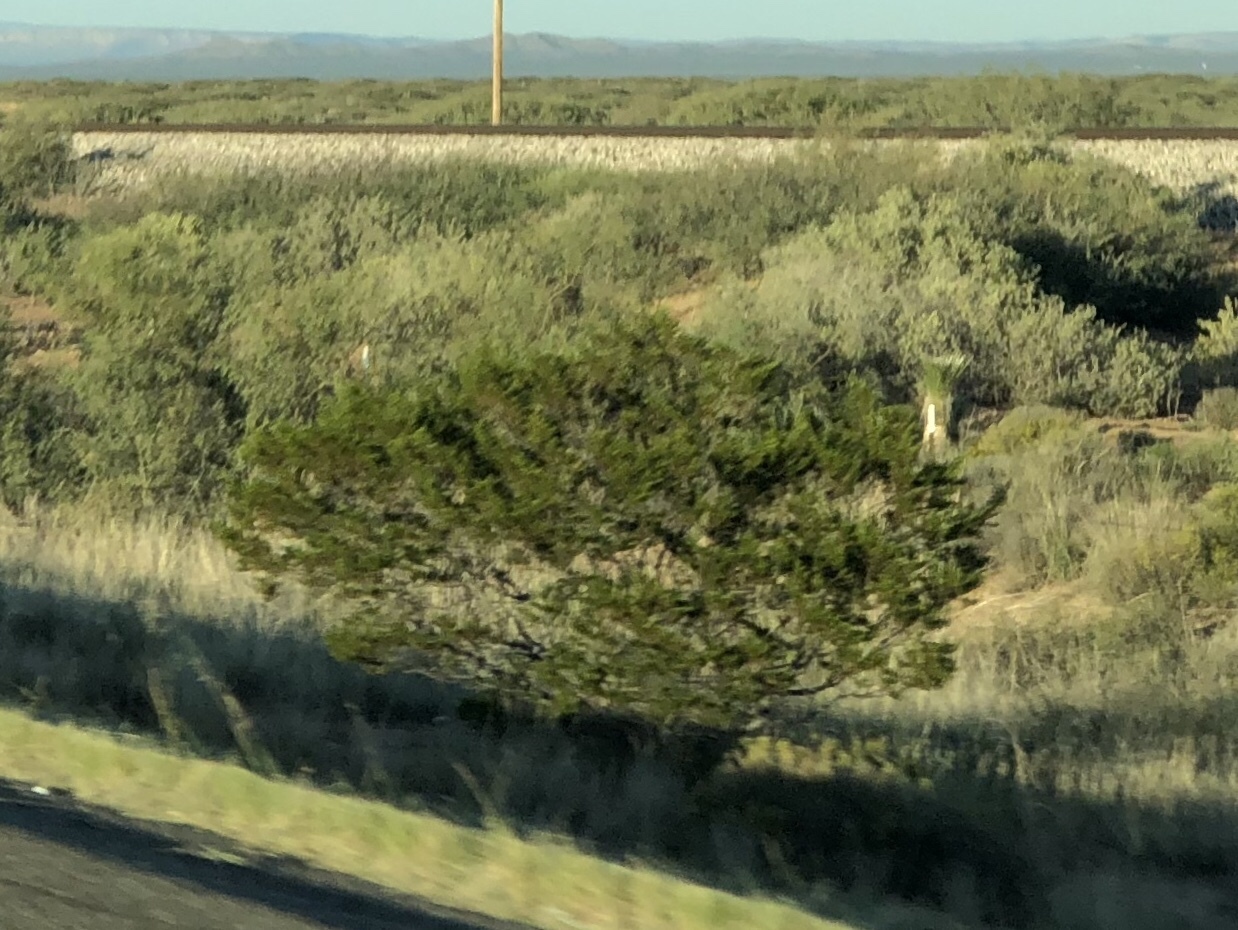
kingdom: Plantae
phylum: Tracheophyta
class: Magnoliopsida
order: Zygophyllales
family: Zygophyllaceae
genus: Larrea
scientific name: Larrea tridentata
